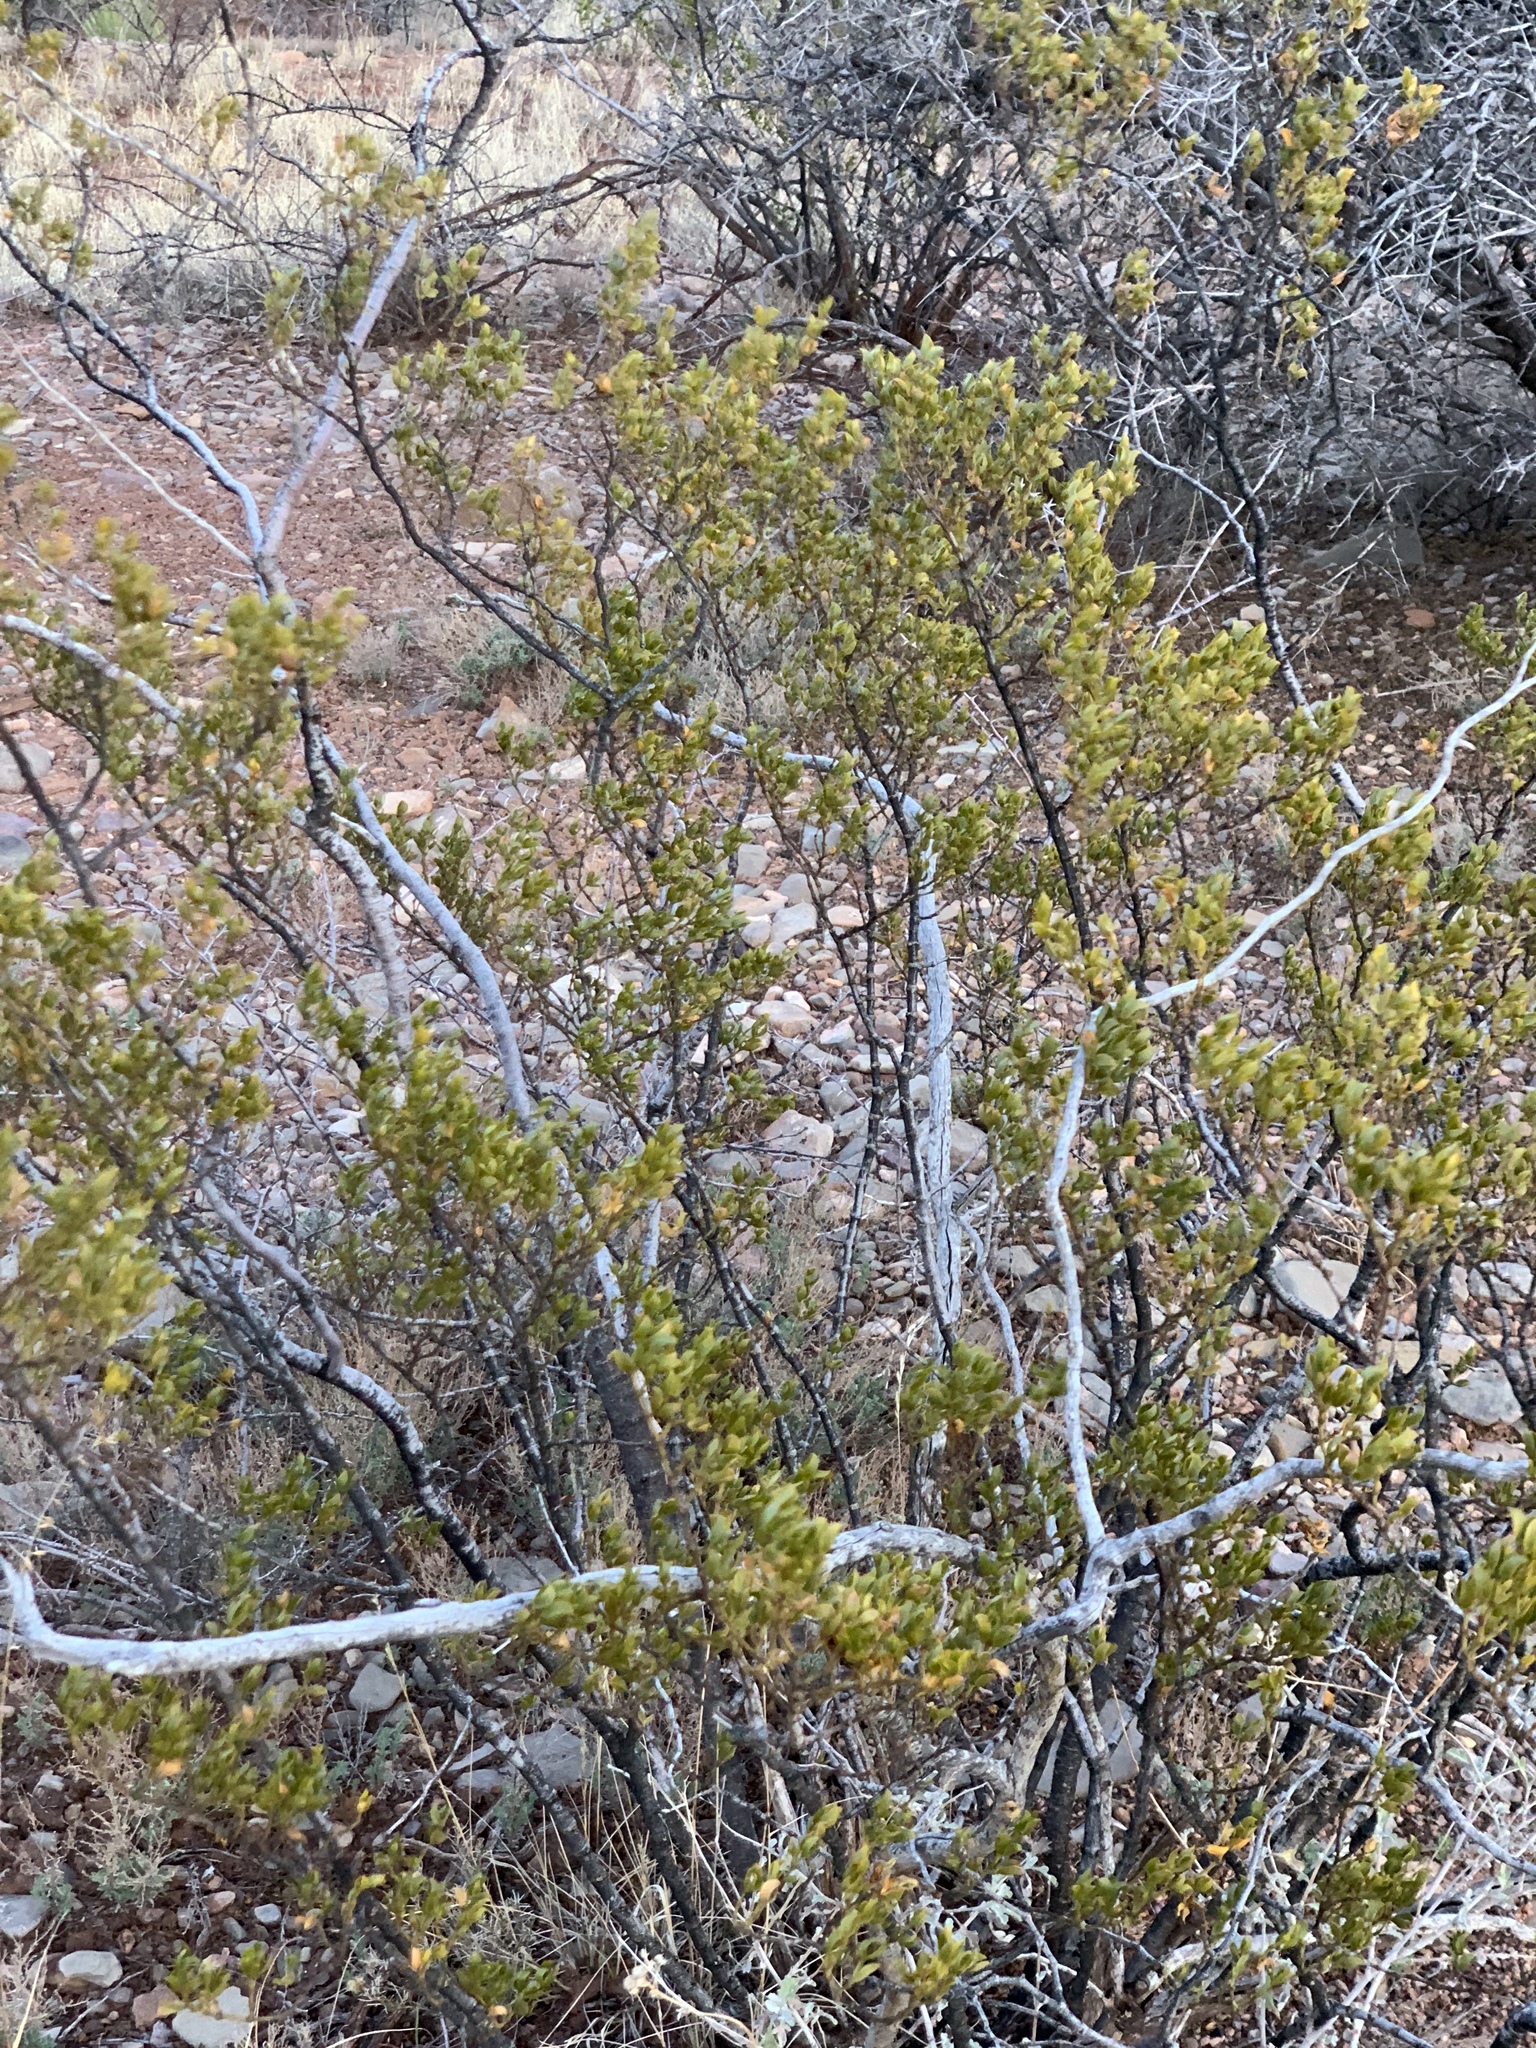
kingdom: Plantae
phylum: Tracheophyta
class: Magnoliopsida
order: Zygophyllales
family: Zygophyllaceae
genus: Larrea
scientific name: Larrea tridentata
